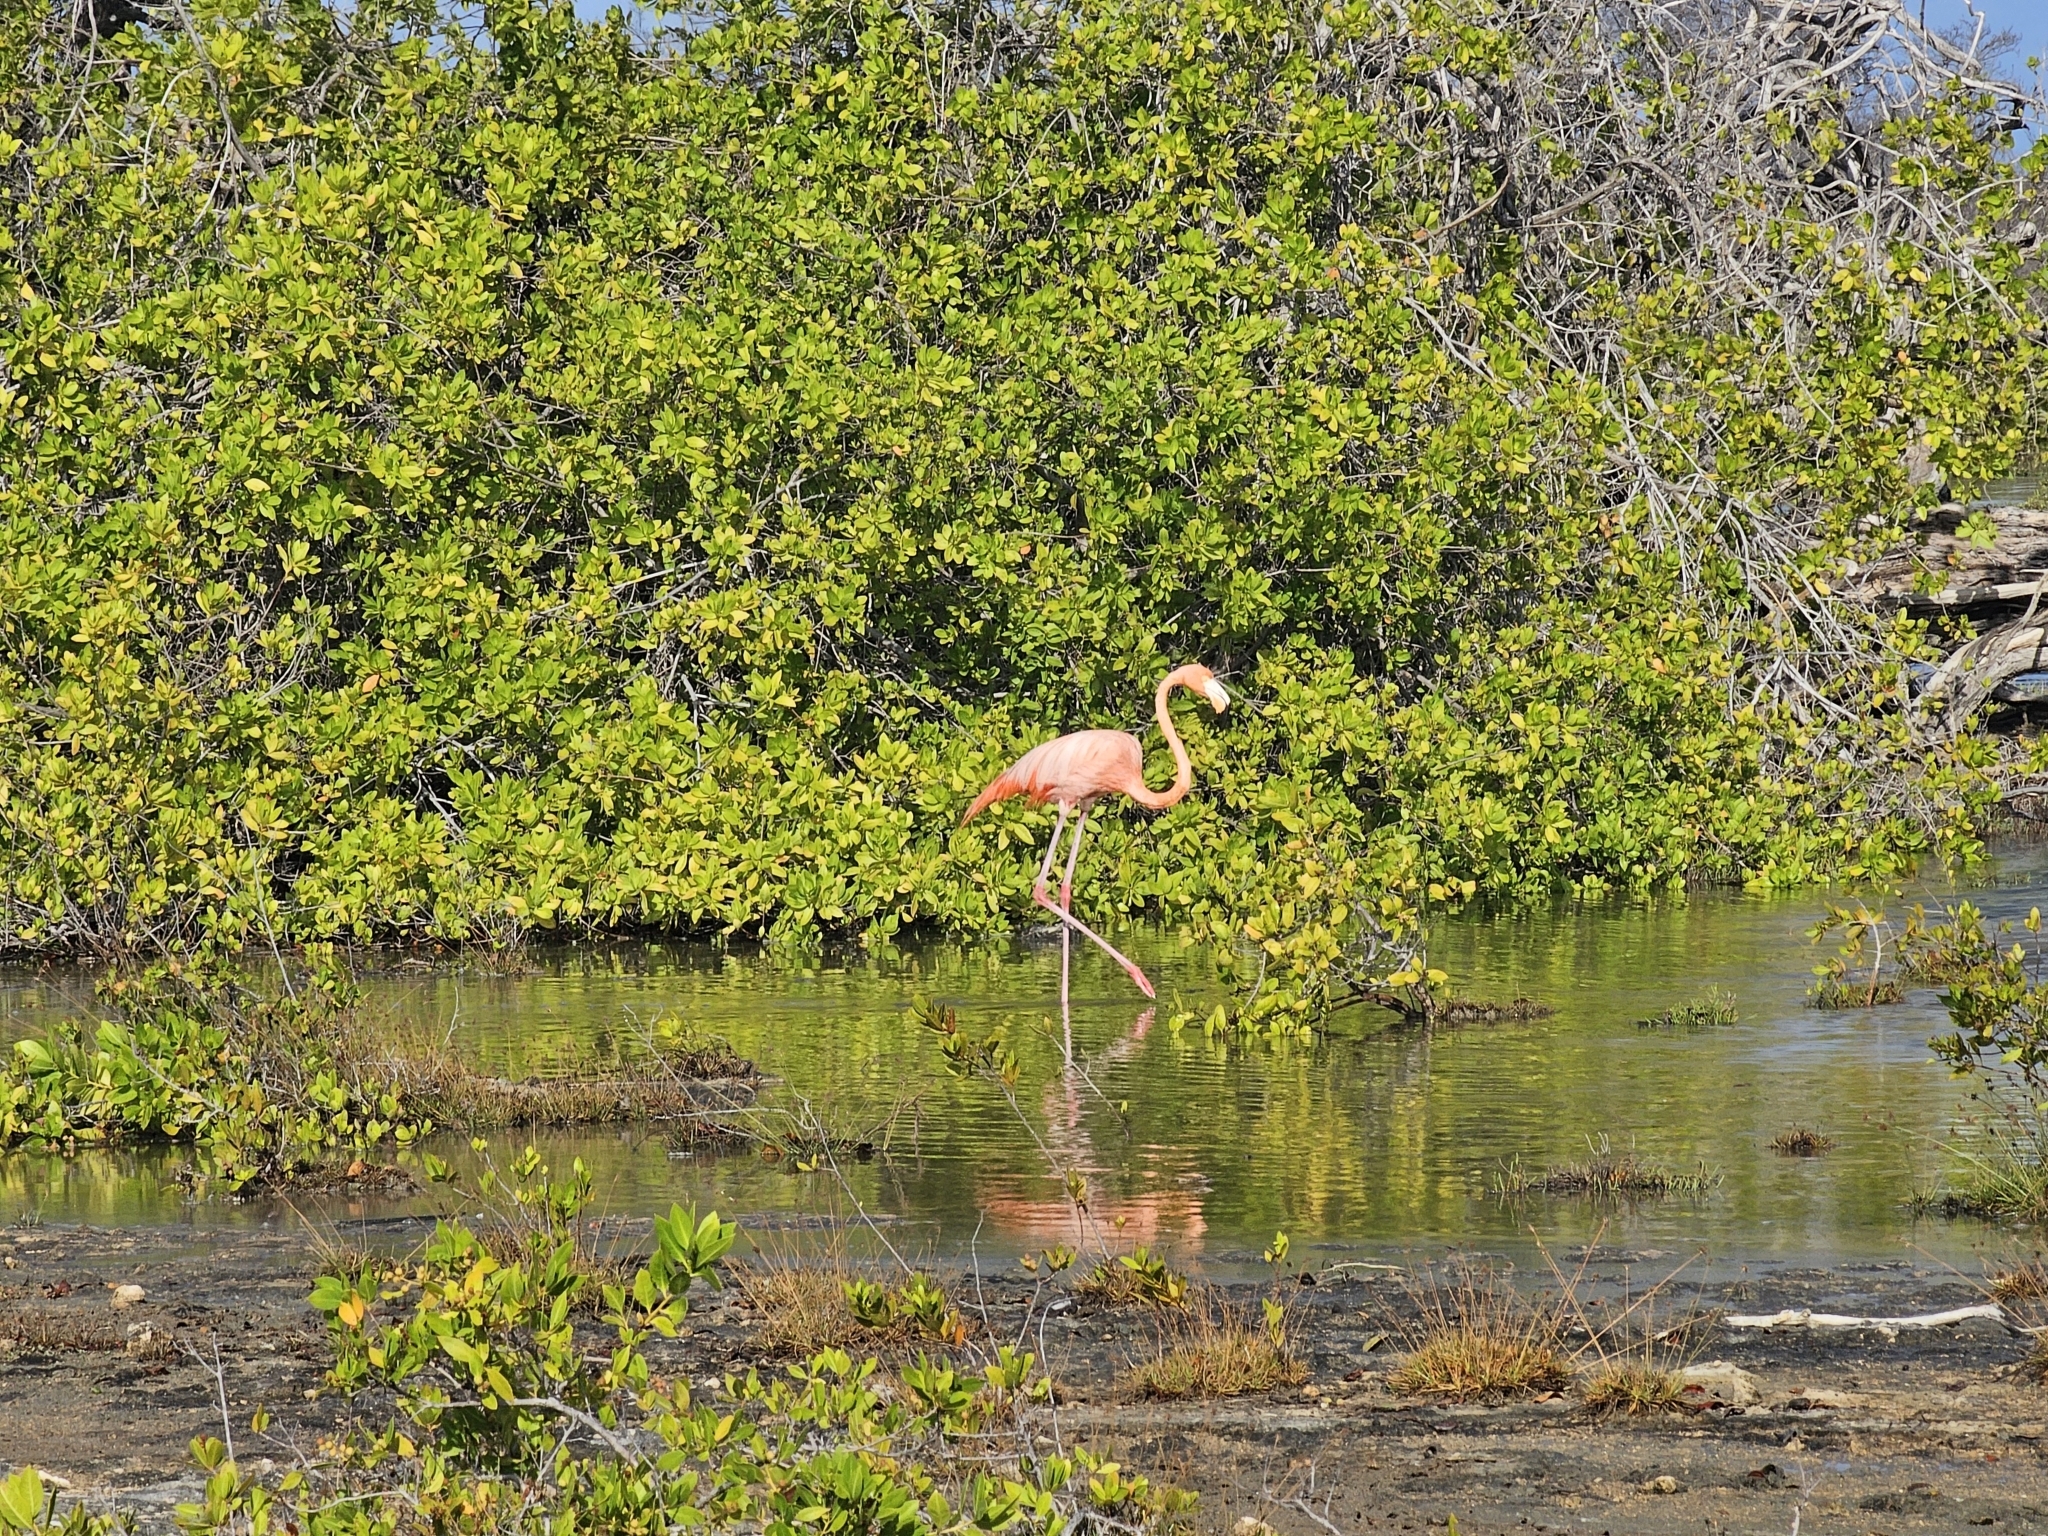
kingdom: Animalia
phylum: Chordata
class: Aves
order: Phoenicopteriformes
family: Phoenicopteridae
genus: Phoenicopterus
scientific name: Phoenicopterus ruber
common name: American flamingo
